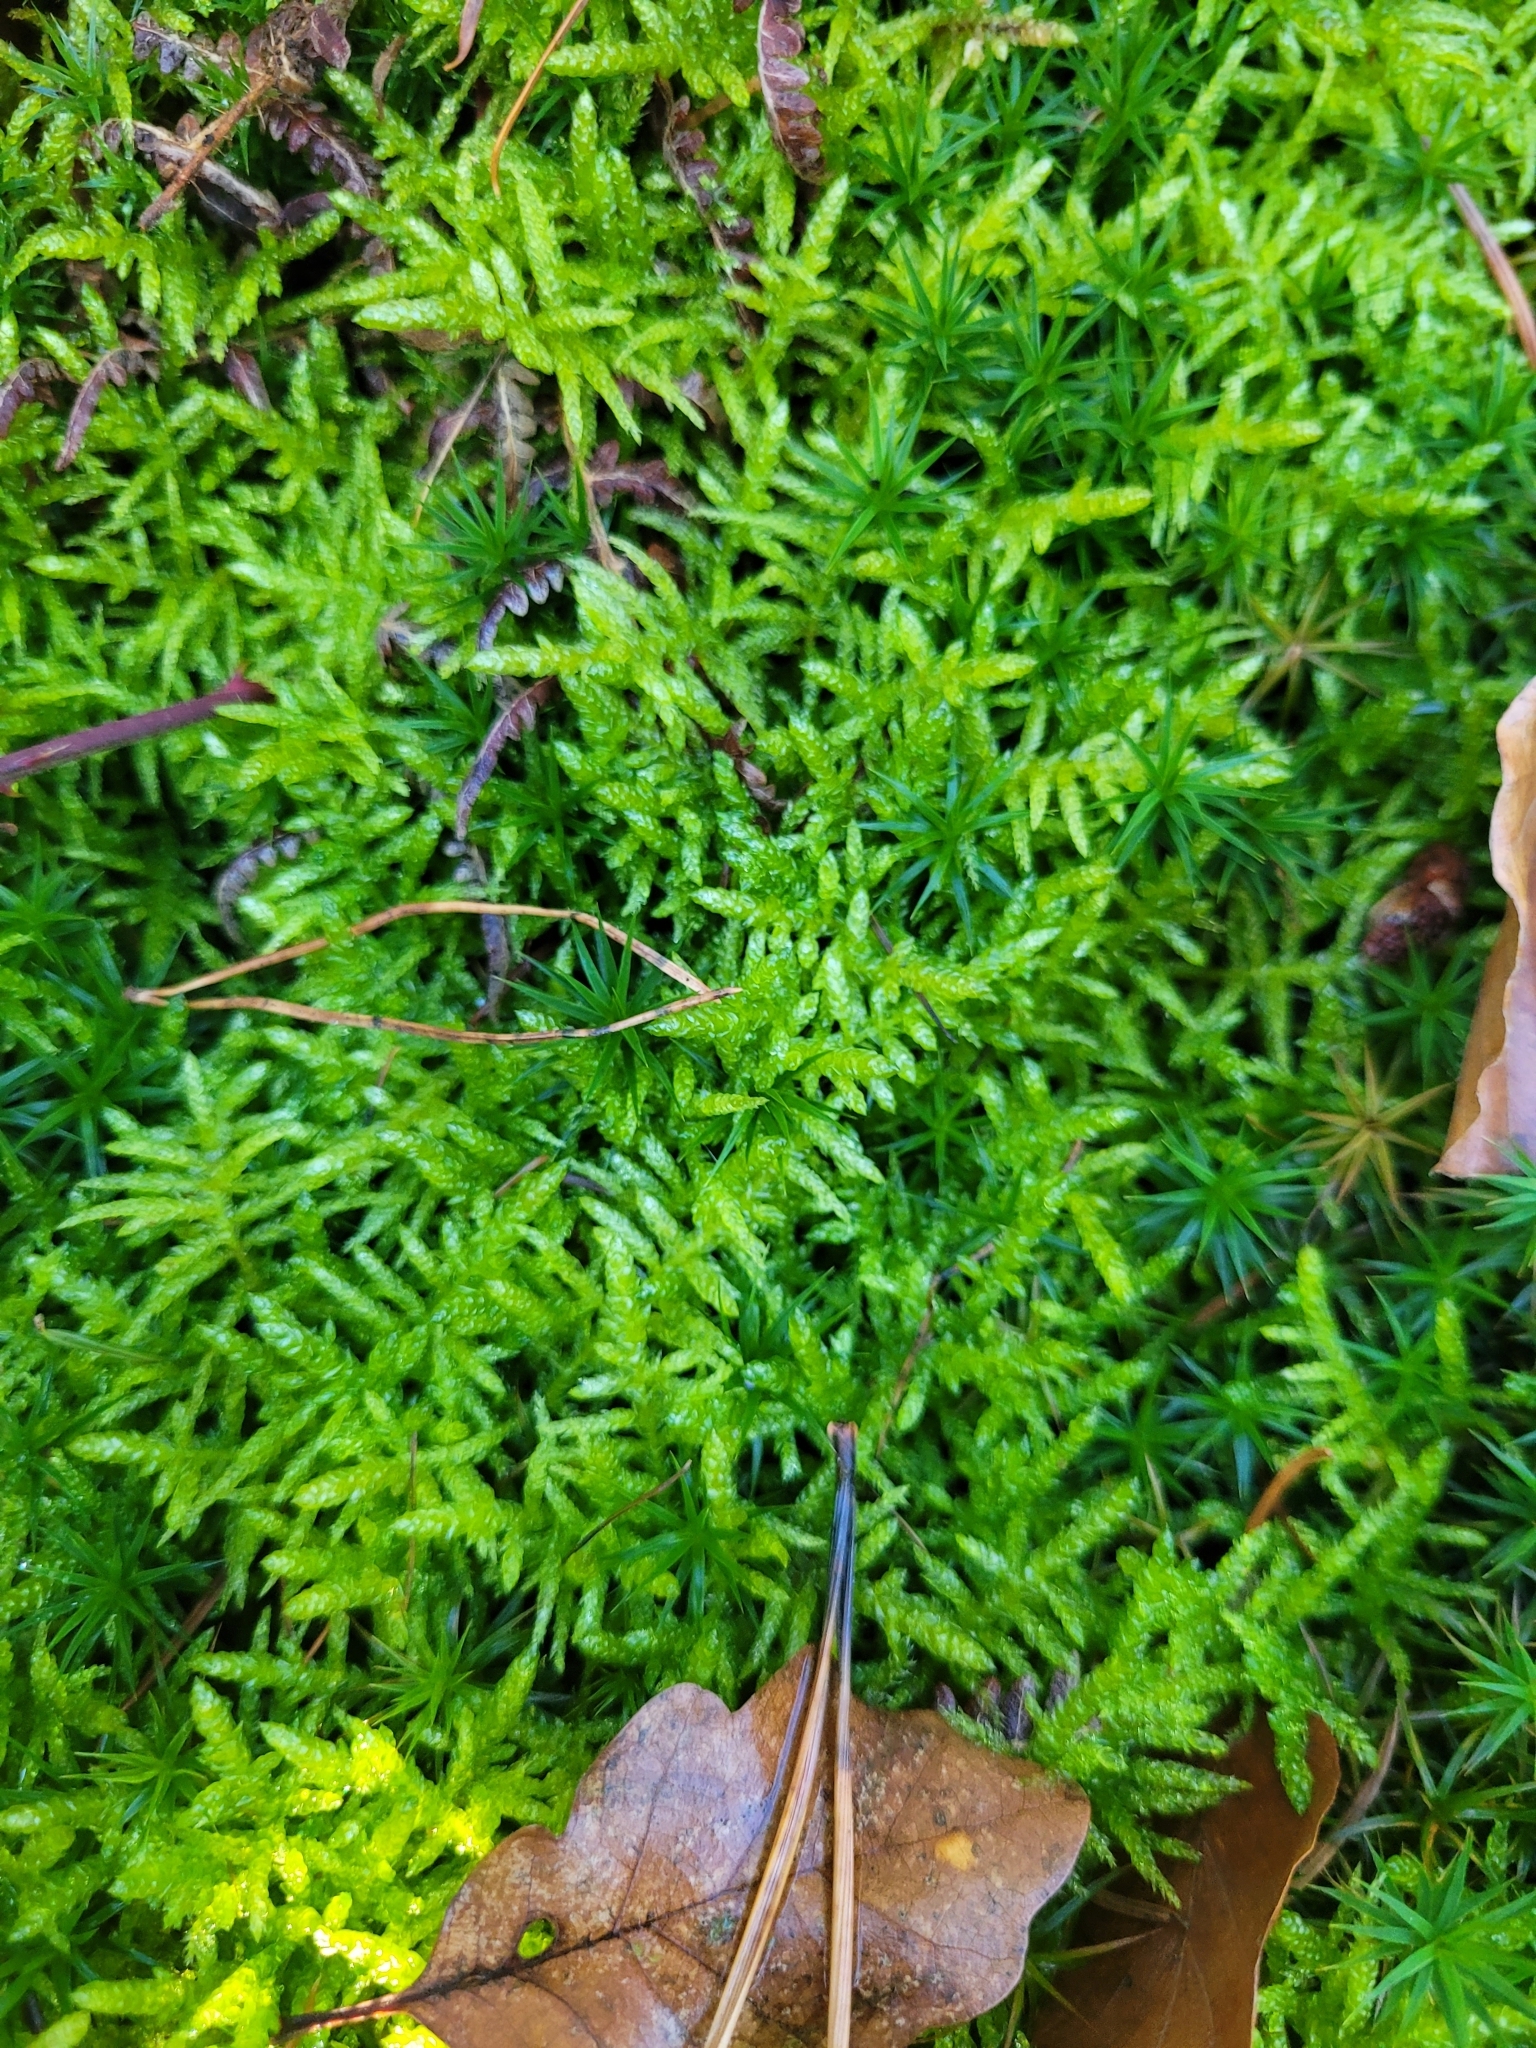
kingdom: Plantae
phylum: Bryophyta
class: Bryopsida
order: Hypnales
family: Brachytheciaceae
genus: Pseudoscleropodium
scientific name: Pseudoscleropodium purum
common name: Neat feather-moss
